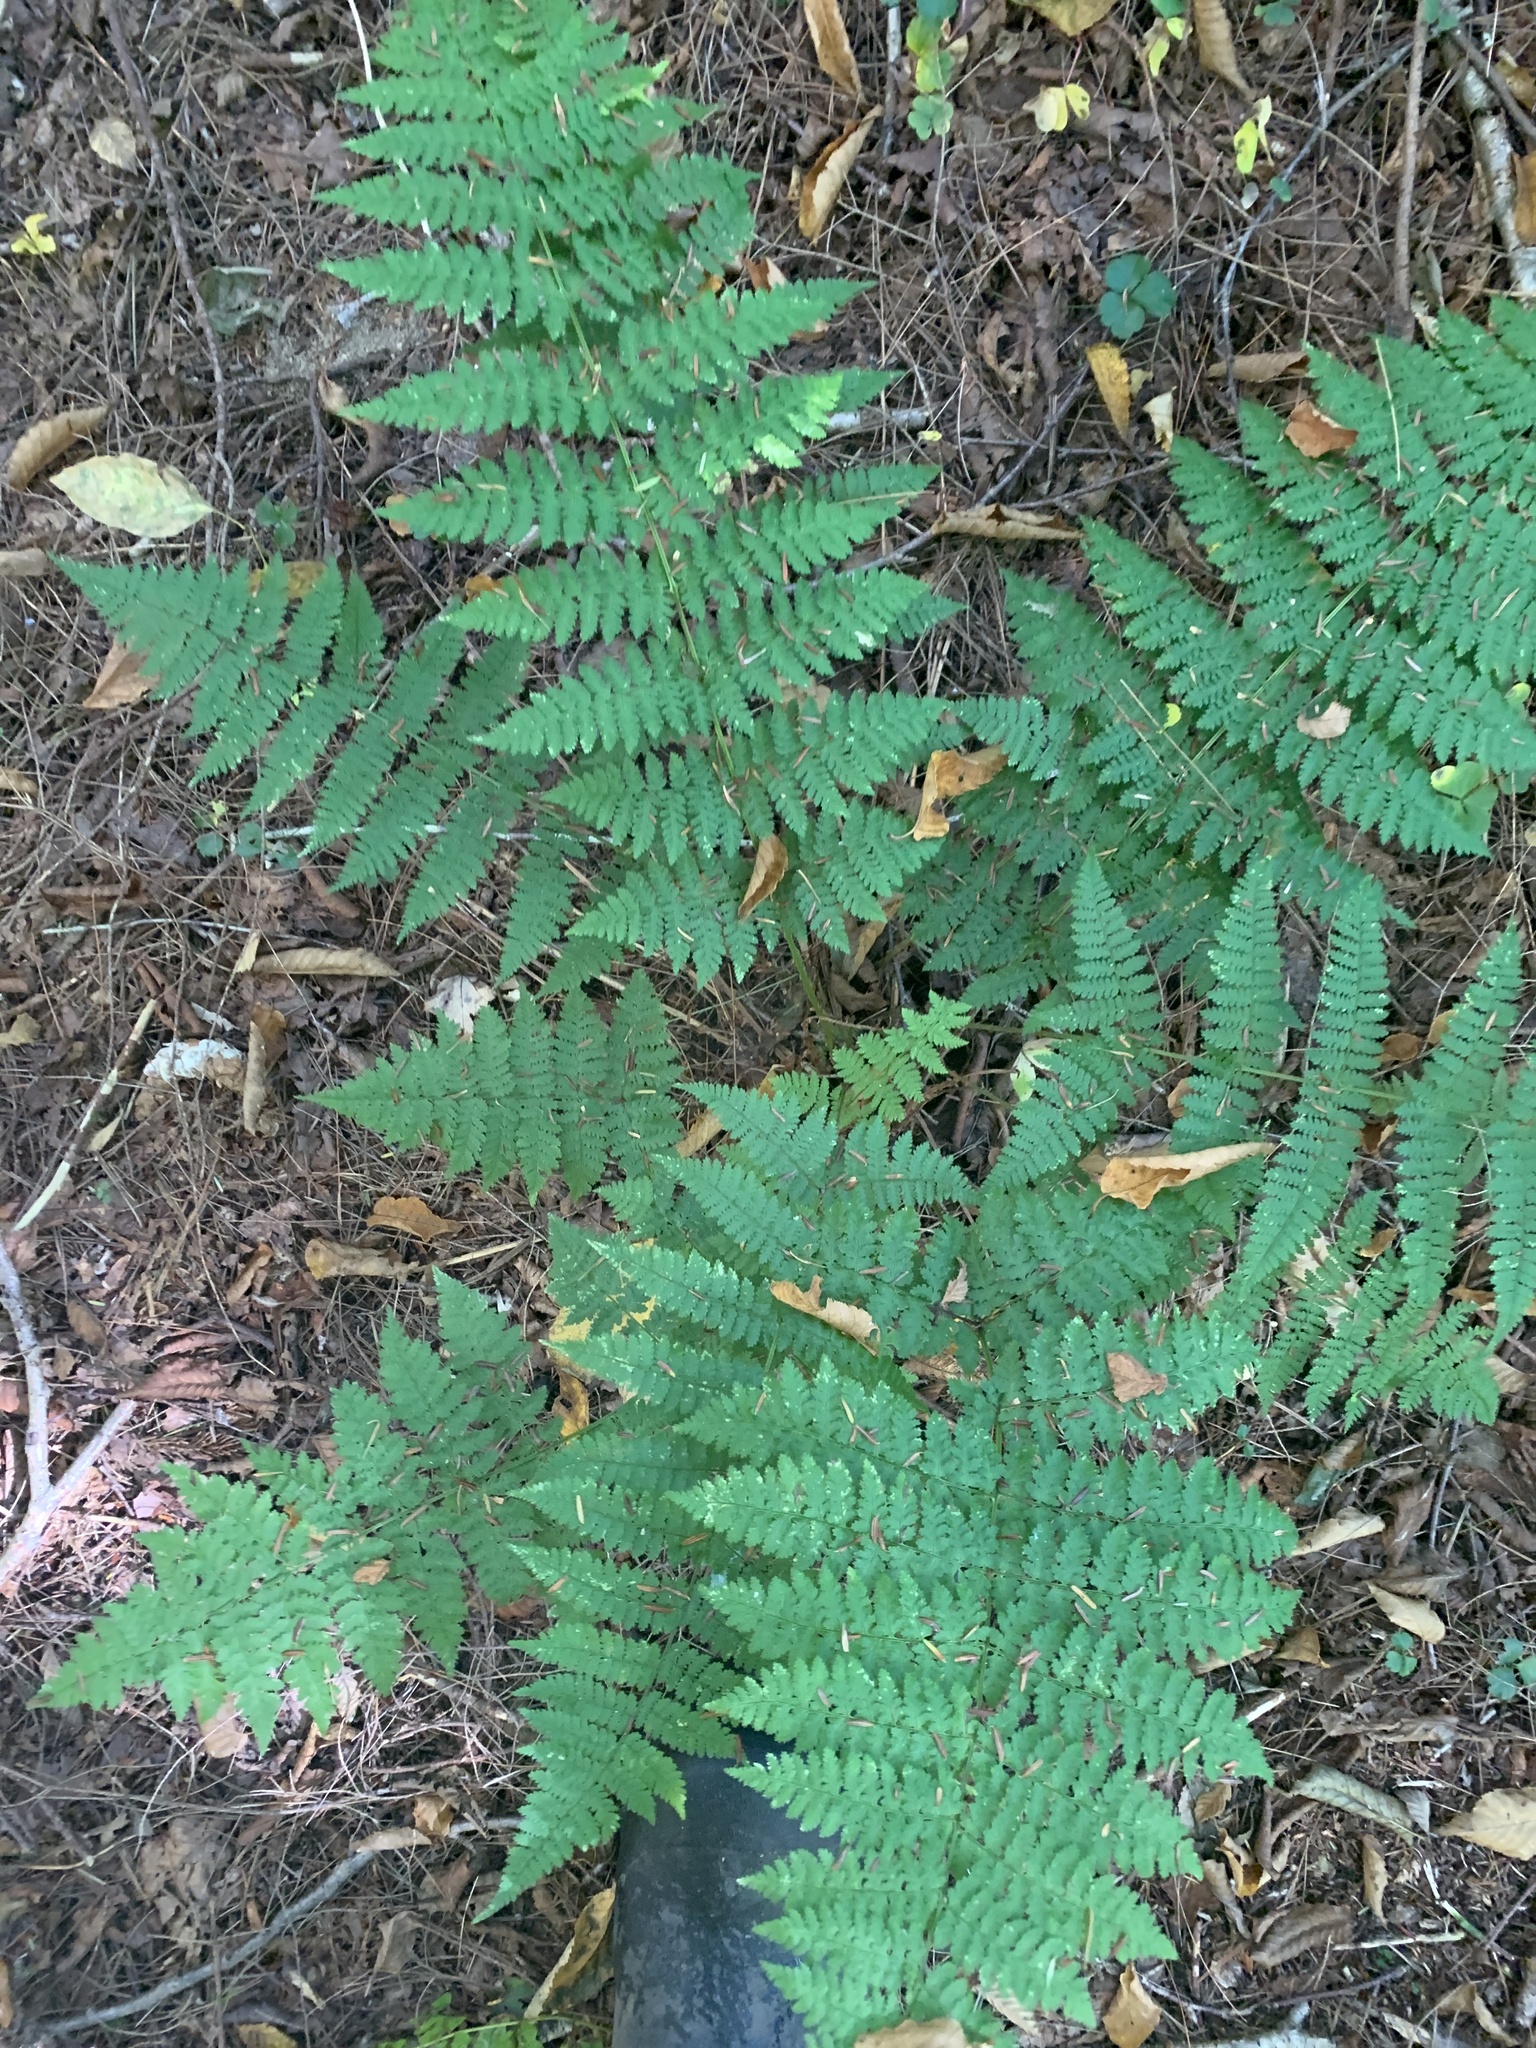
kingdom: Plantae
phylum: Tracheophyta
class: Polypodiopsida
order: Polypodiales
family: Dryopteridaceae
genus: Dryopteris
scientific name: Dryopteris intermedia
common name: Evergreen wood fern
